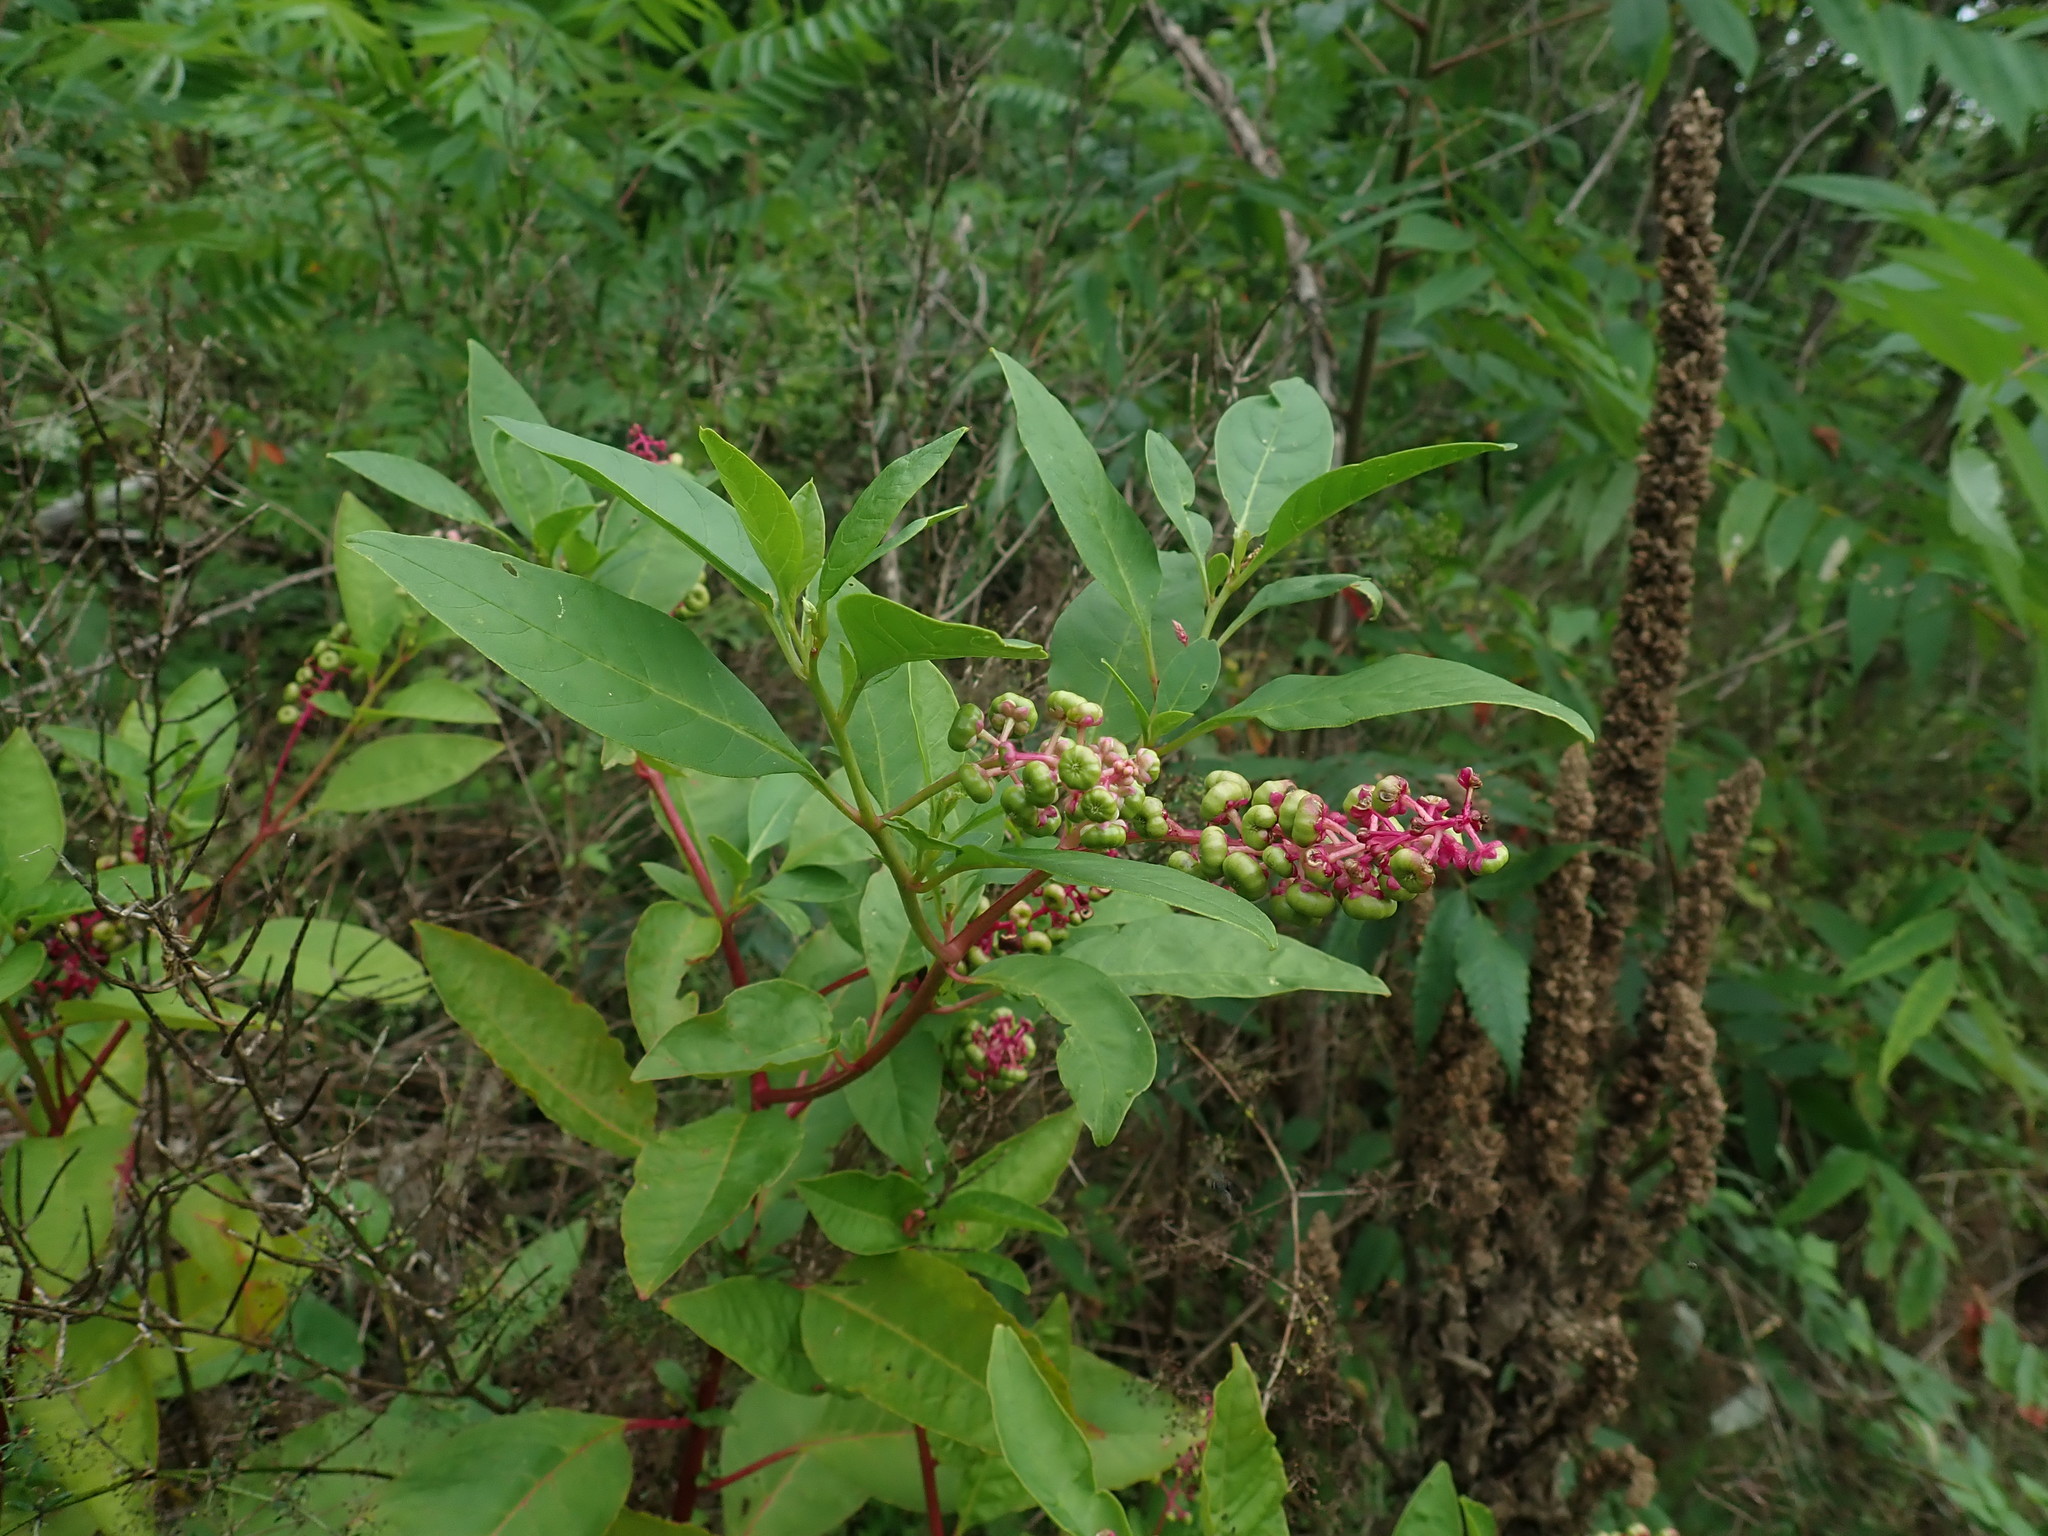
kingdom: Plantae
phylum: Tracheophyta
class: Magnoliopsida
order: Caryophyllales
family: Phytolaccaceae
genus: Phytolacca
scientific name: Phytolacca americana
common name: American pokeweed
